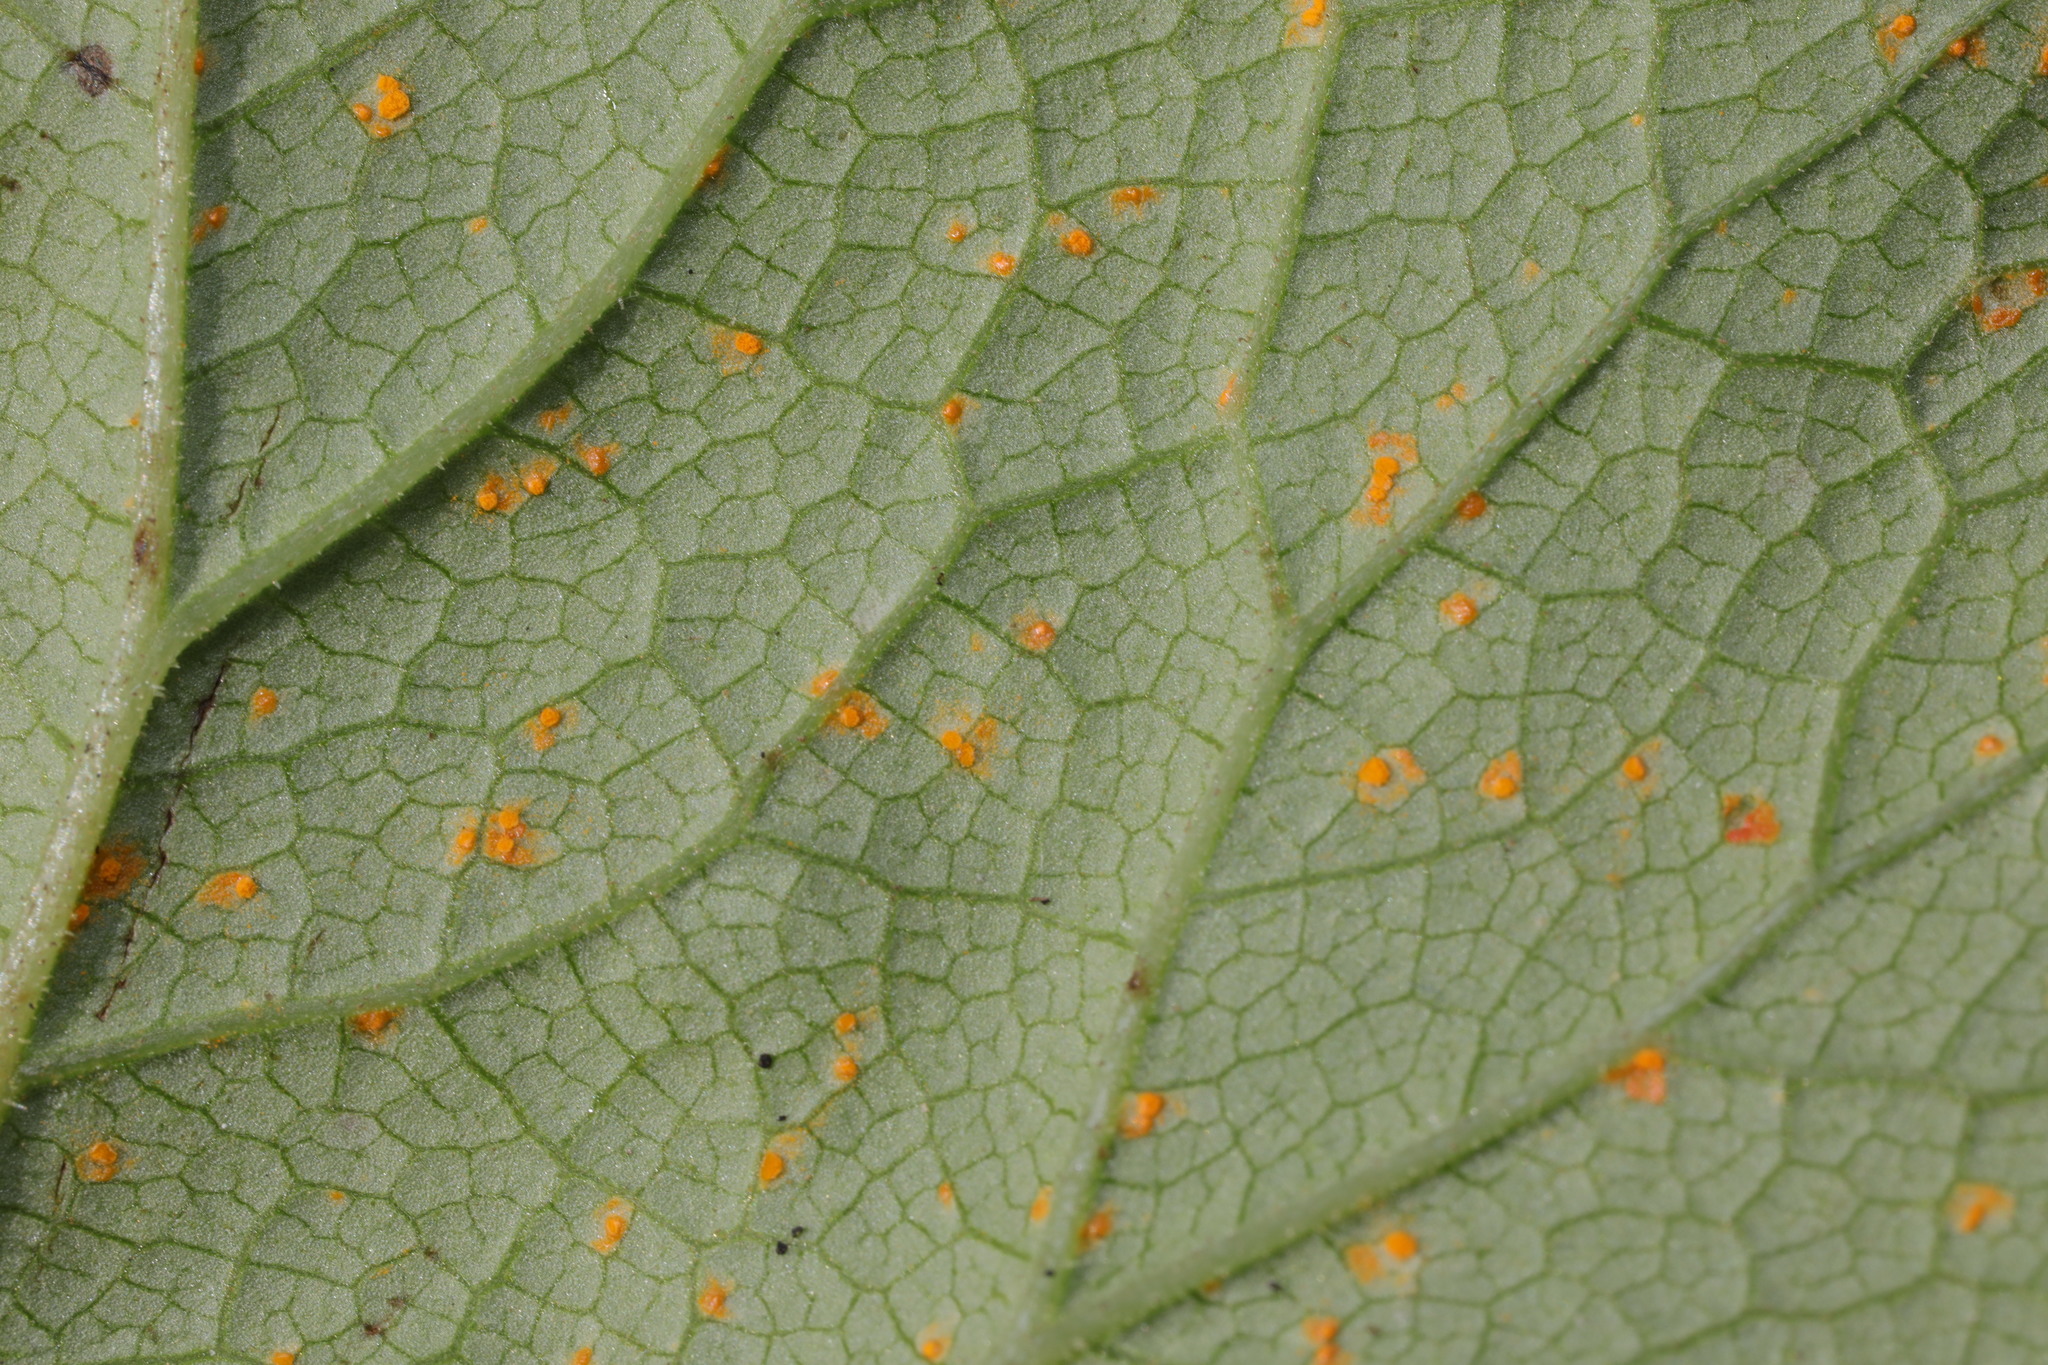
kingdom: Fungi
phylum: Basidiomycota
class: Pucciniomycetes
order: Pucciniales
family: Coleosporiaceae
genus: Coleosporium
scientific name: Coleosporium tussilaginis
